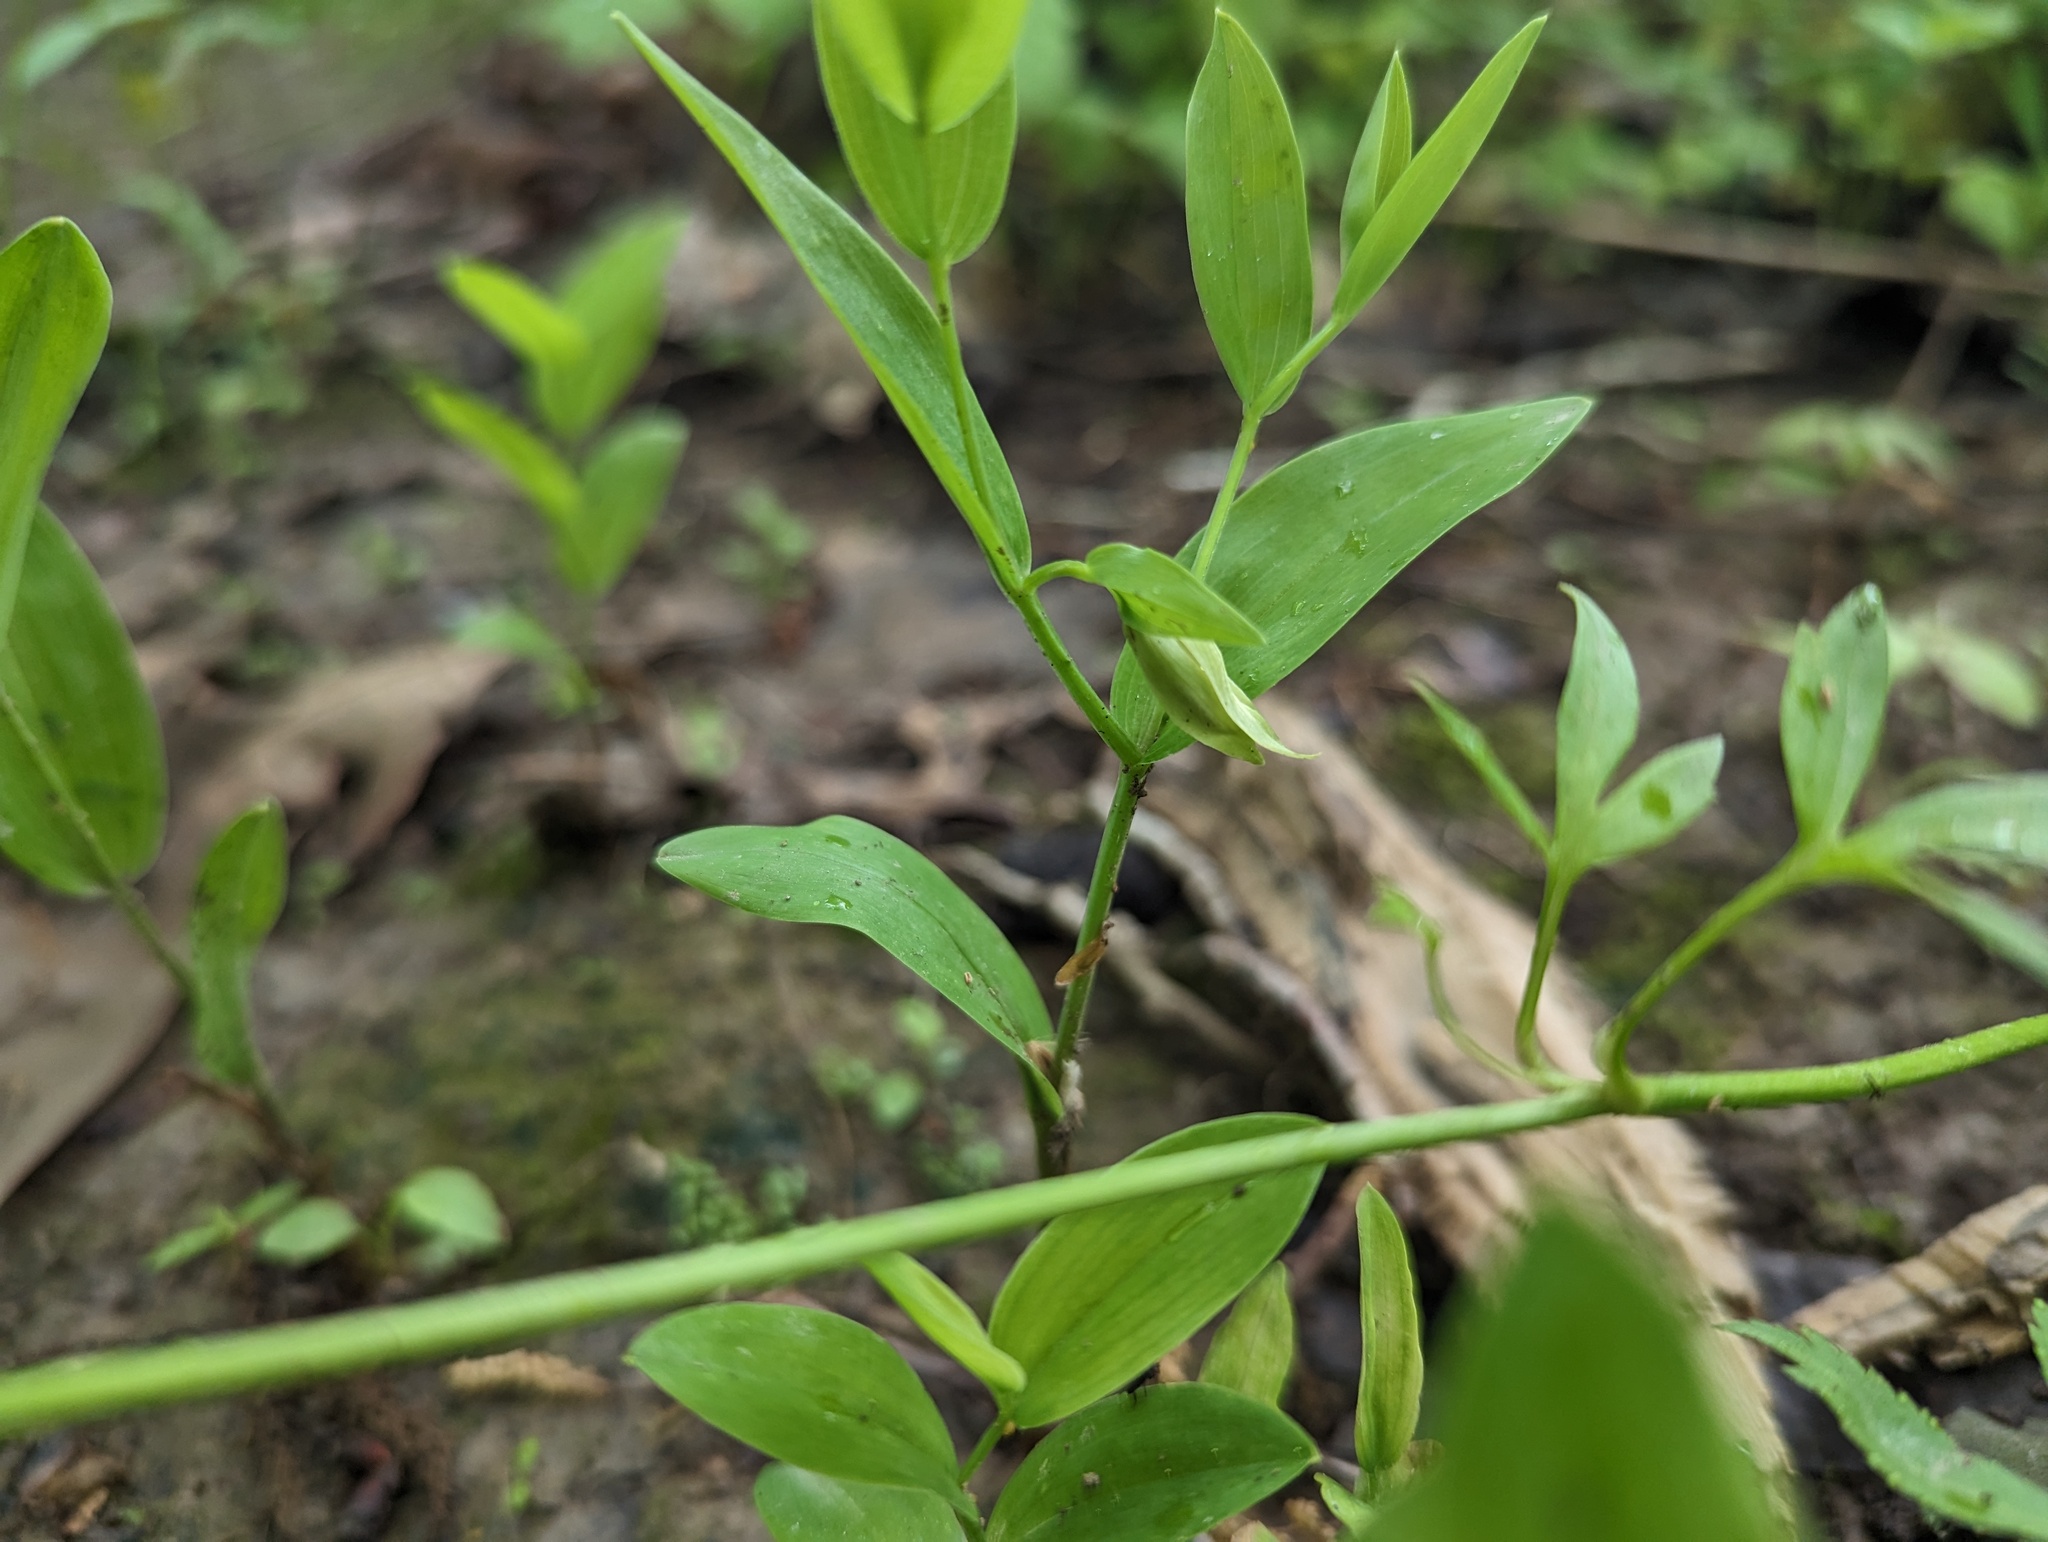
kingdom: Plantae
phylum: Tracheophyta
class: Liliopsida
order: Liliales
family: Colchicaceae
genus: Uvularia
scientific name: Uvularia floridana
